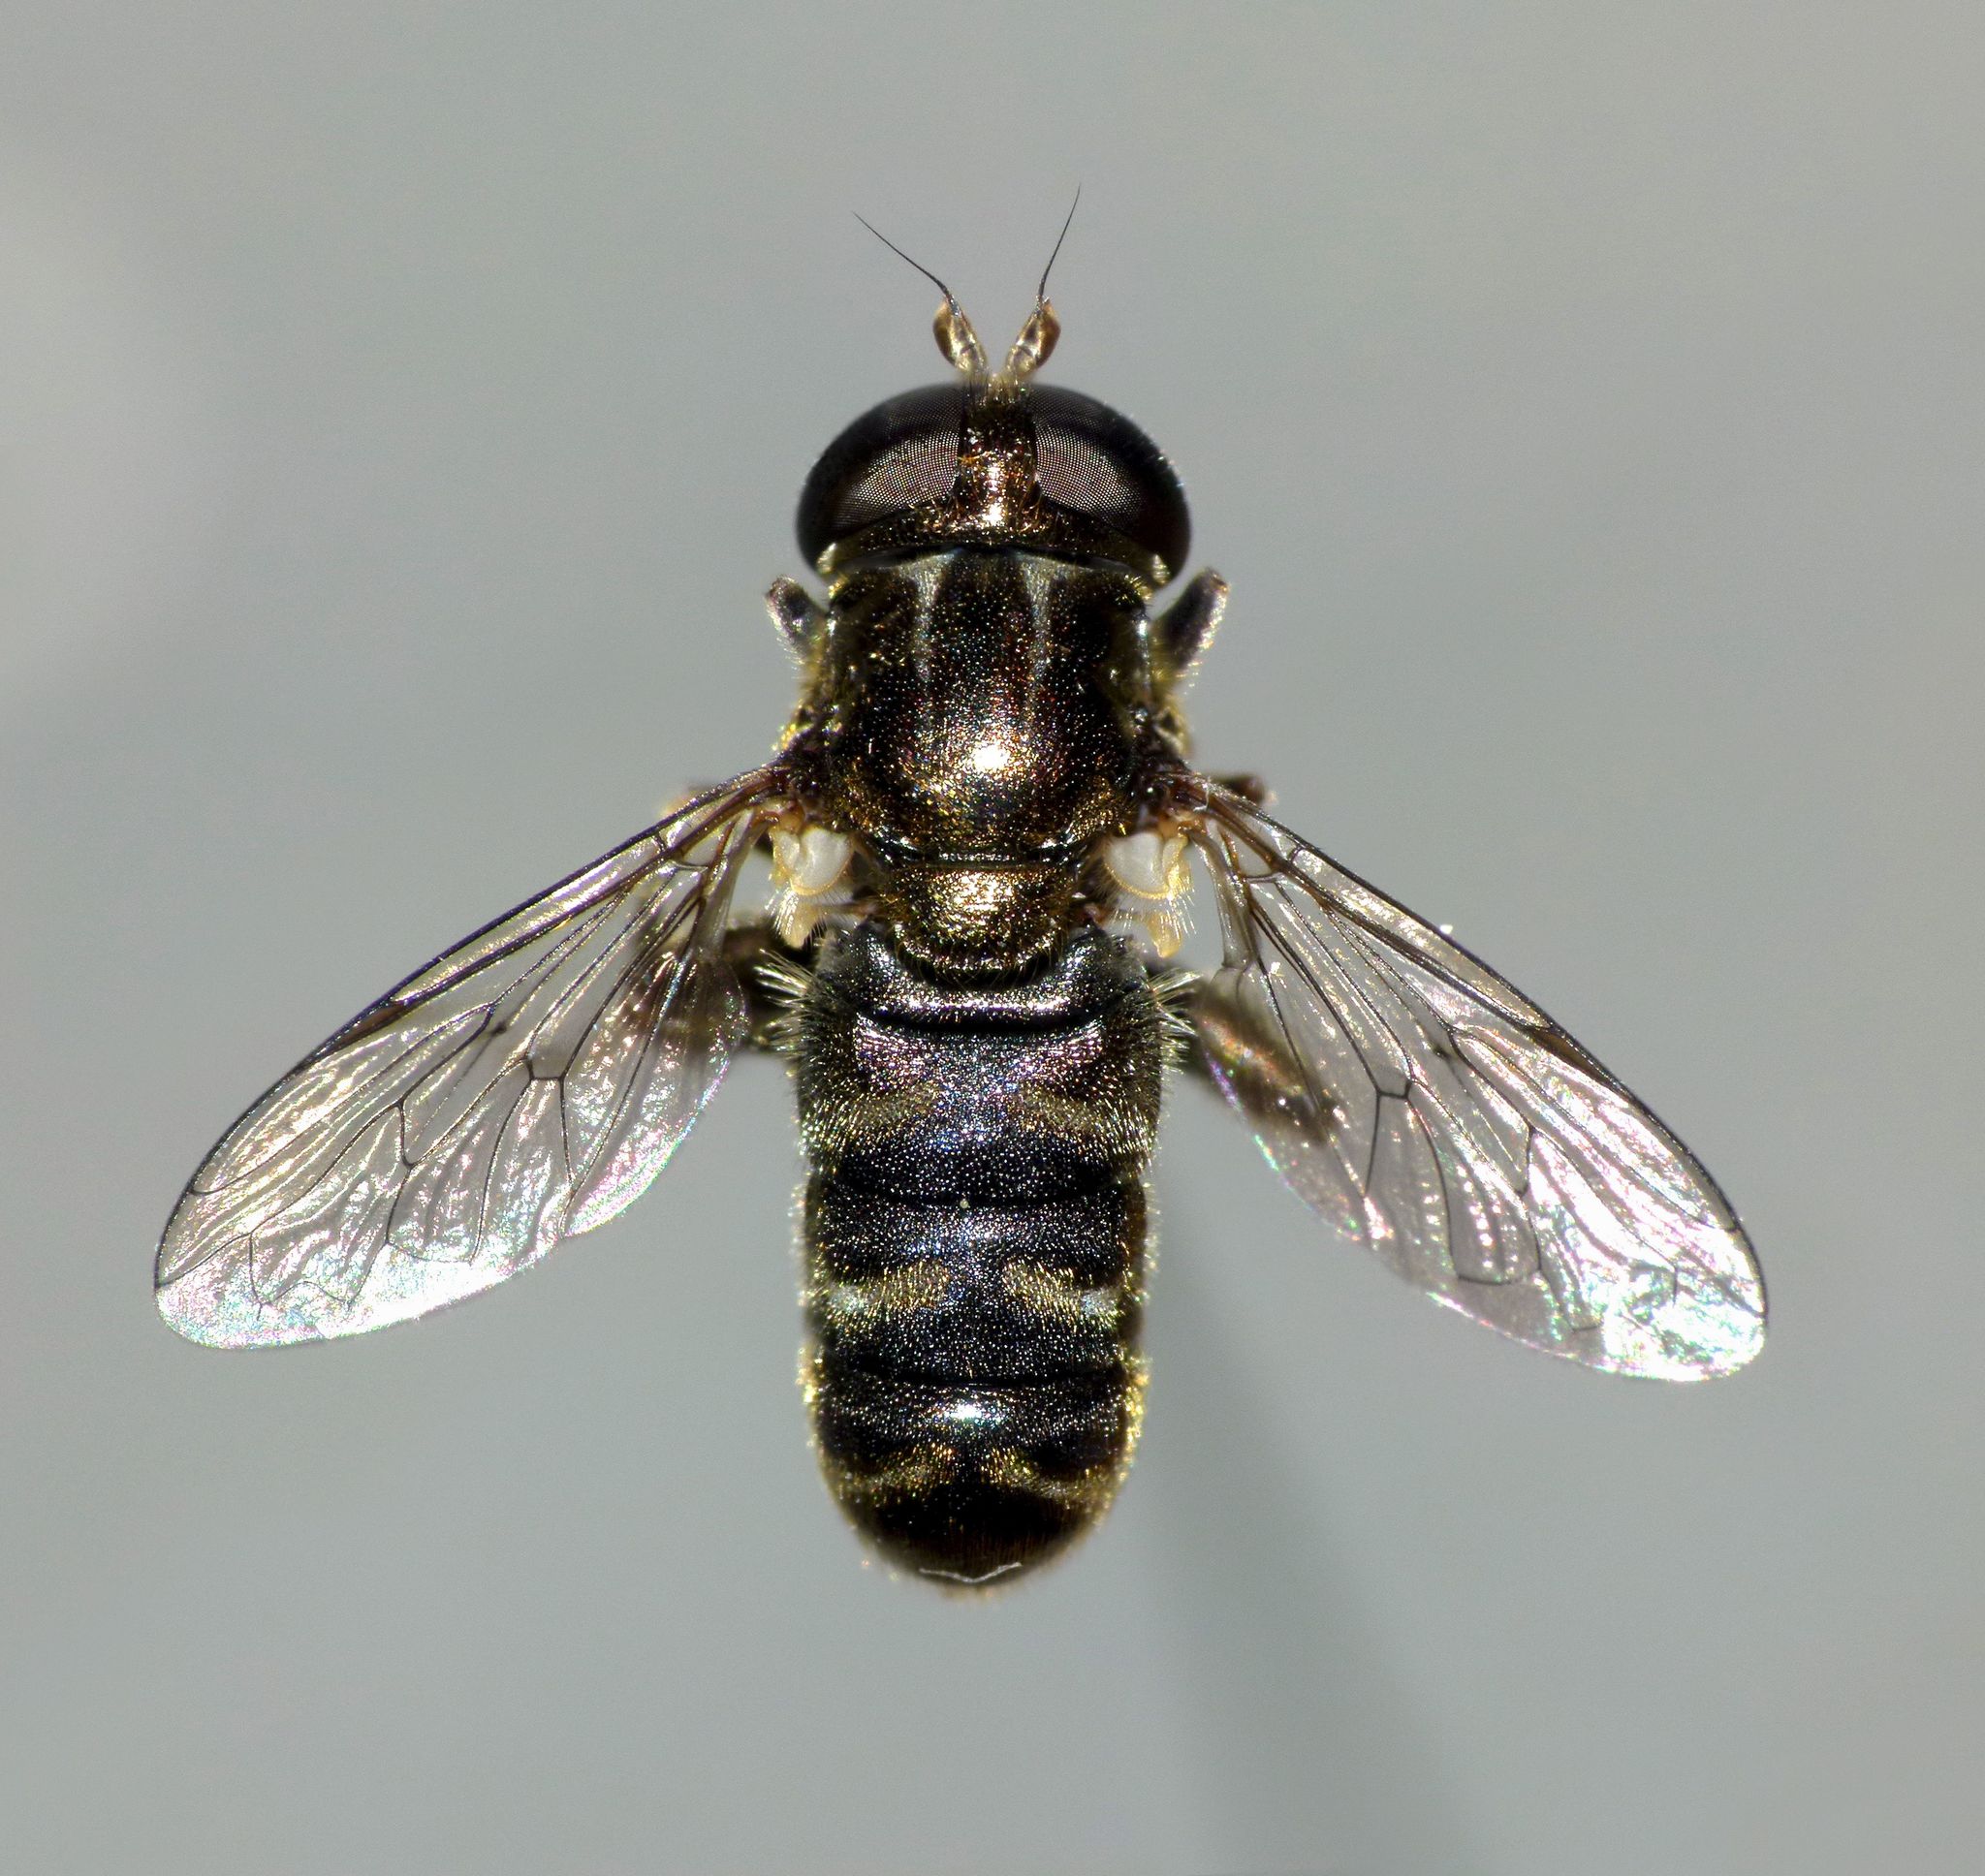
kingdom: Animalia
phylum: Arthropoda
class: Insecta
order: Diptera
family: Syrphidae
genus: Eumerus
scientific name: Eumerus
